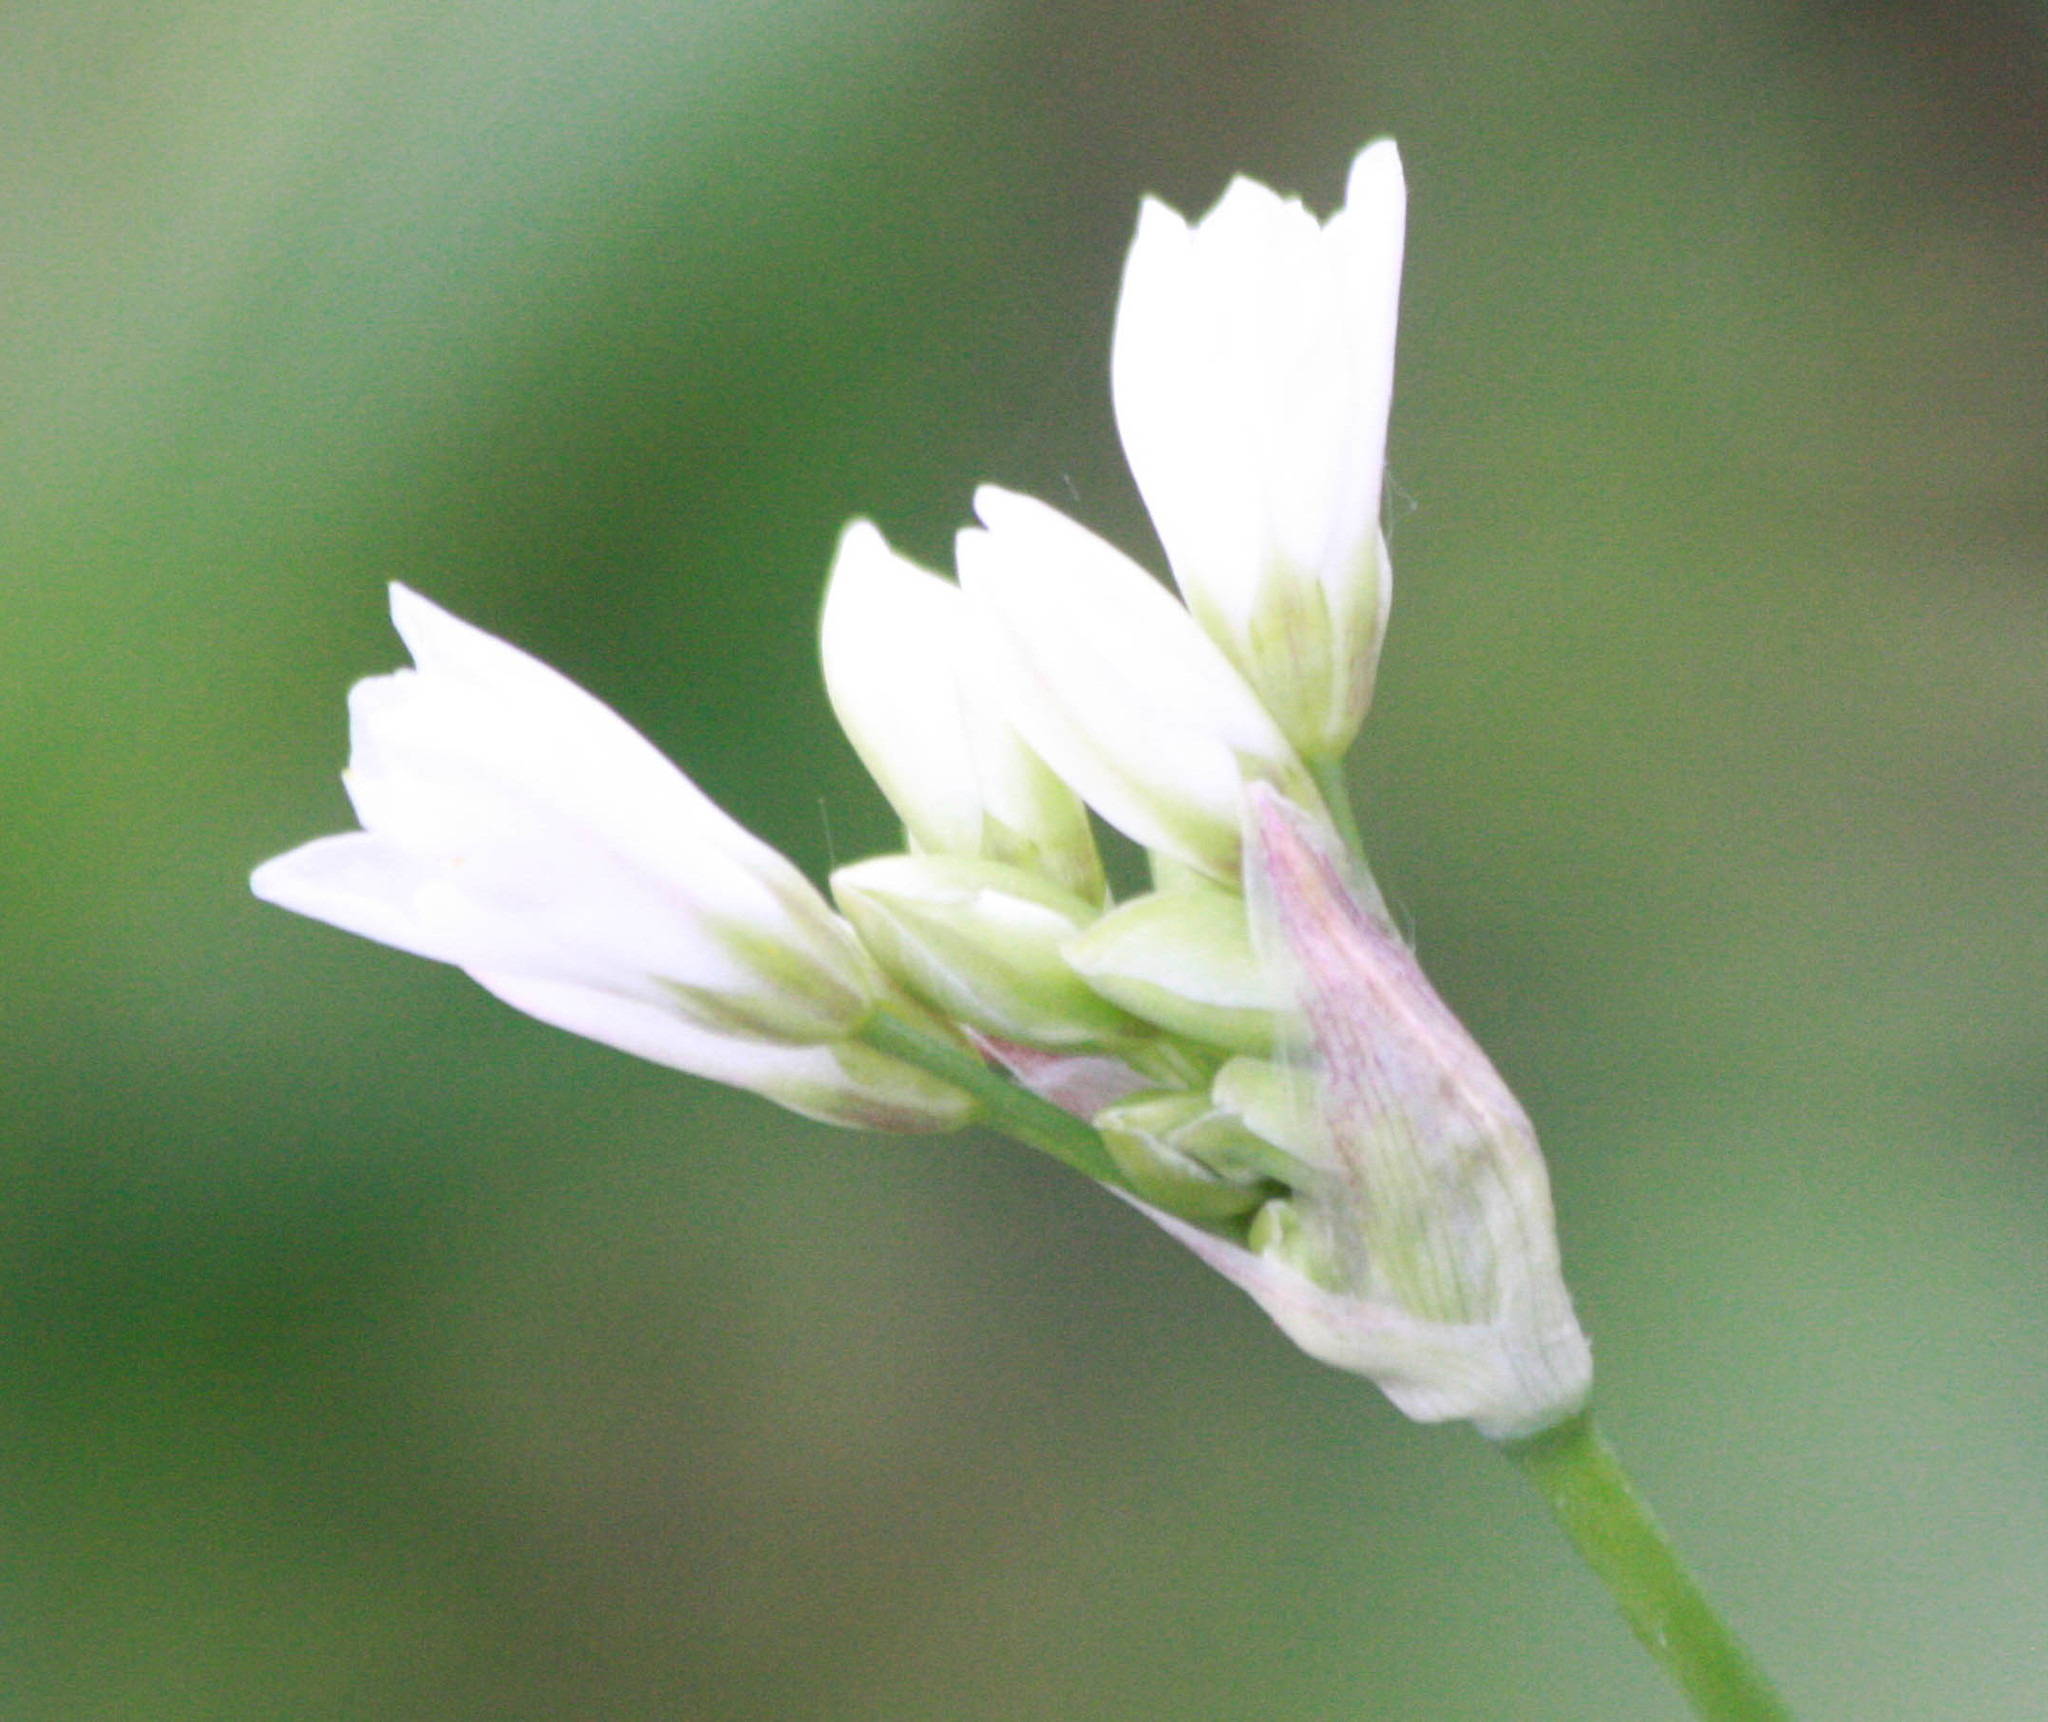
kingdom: Plantae
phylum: Tracheophyta
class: Liliopsida
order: Asparagales
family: Amaryllidaceae
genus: Nothoscordum
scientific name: Nothoscordum bivalve
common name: Crow-poison
